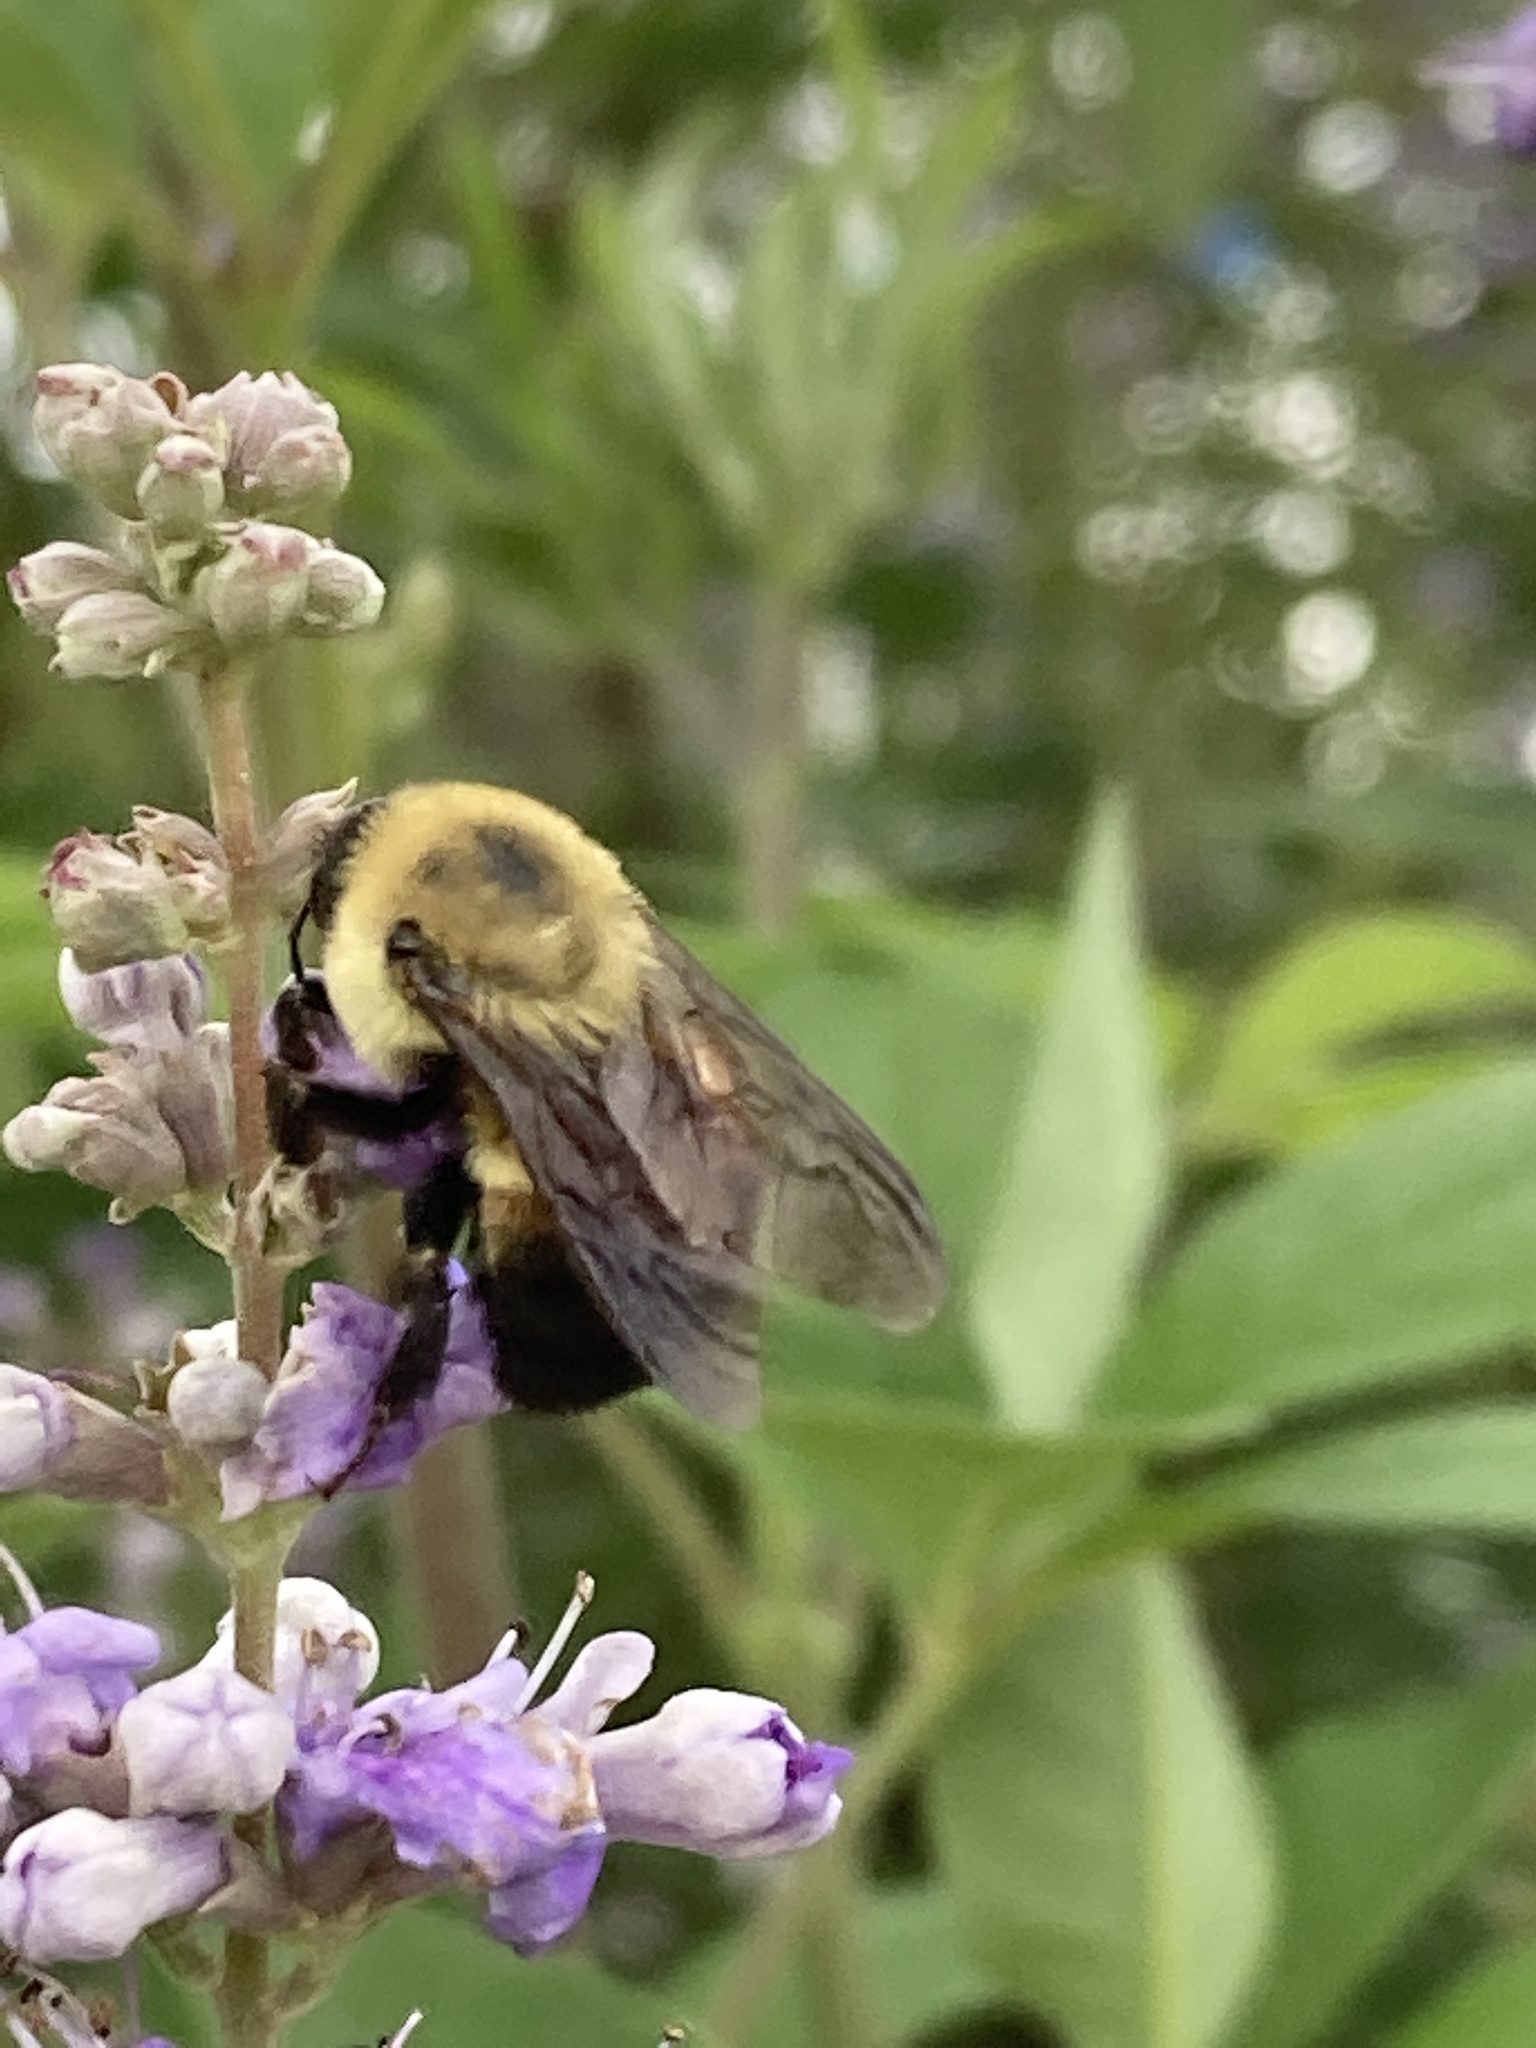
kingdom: Animalia
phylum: Arthropoda
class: Insecta
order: Hymenoptera
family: Apidae
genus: Bombus
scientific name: Bombus griseocollis
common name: Brown-belted bumble bee
